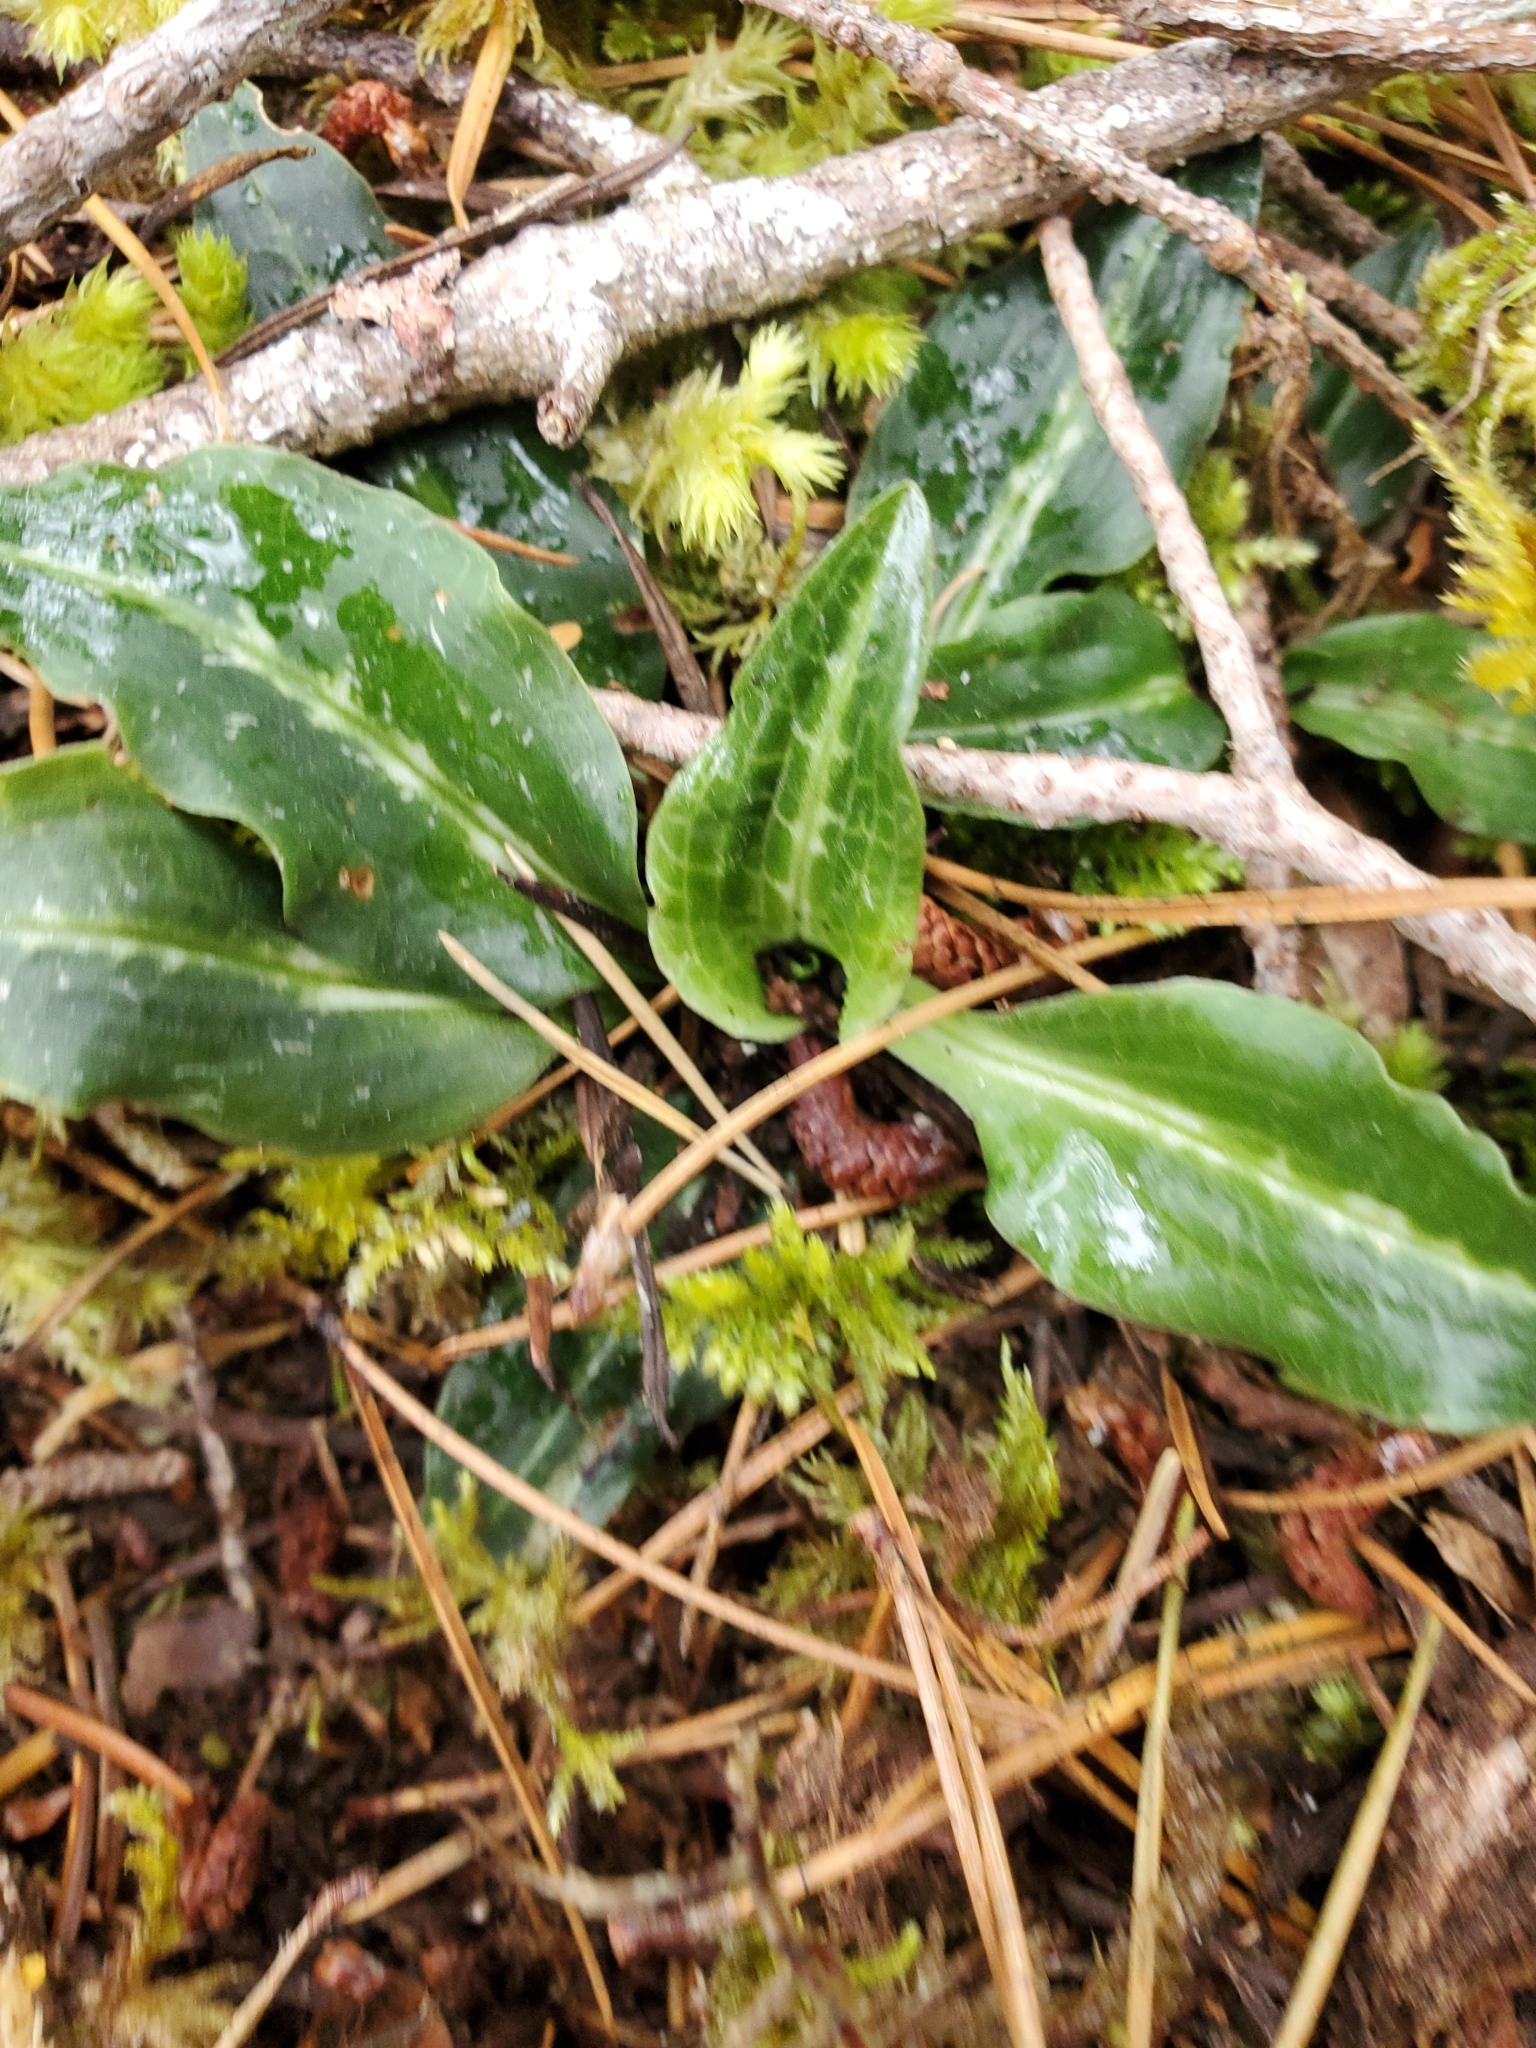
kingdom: Plantae
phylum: Tracheophyta
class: Liliopsida
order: Asparagales
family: Orchidaceae
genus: Goodyera
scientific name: Goodyera oblongifolia
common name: Giant rattlesnake-plantain
